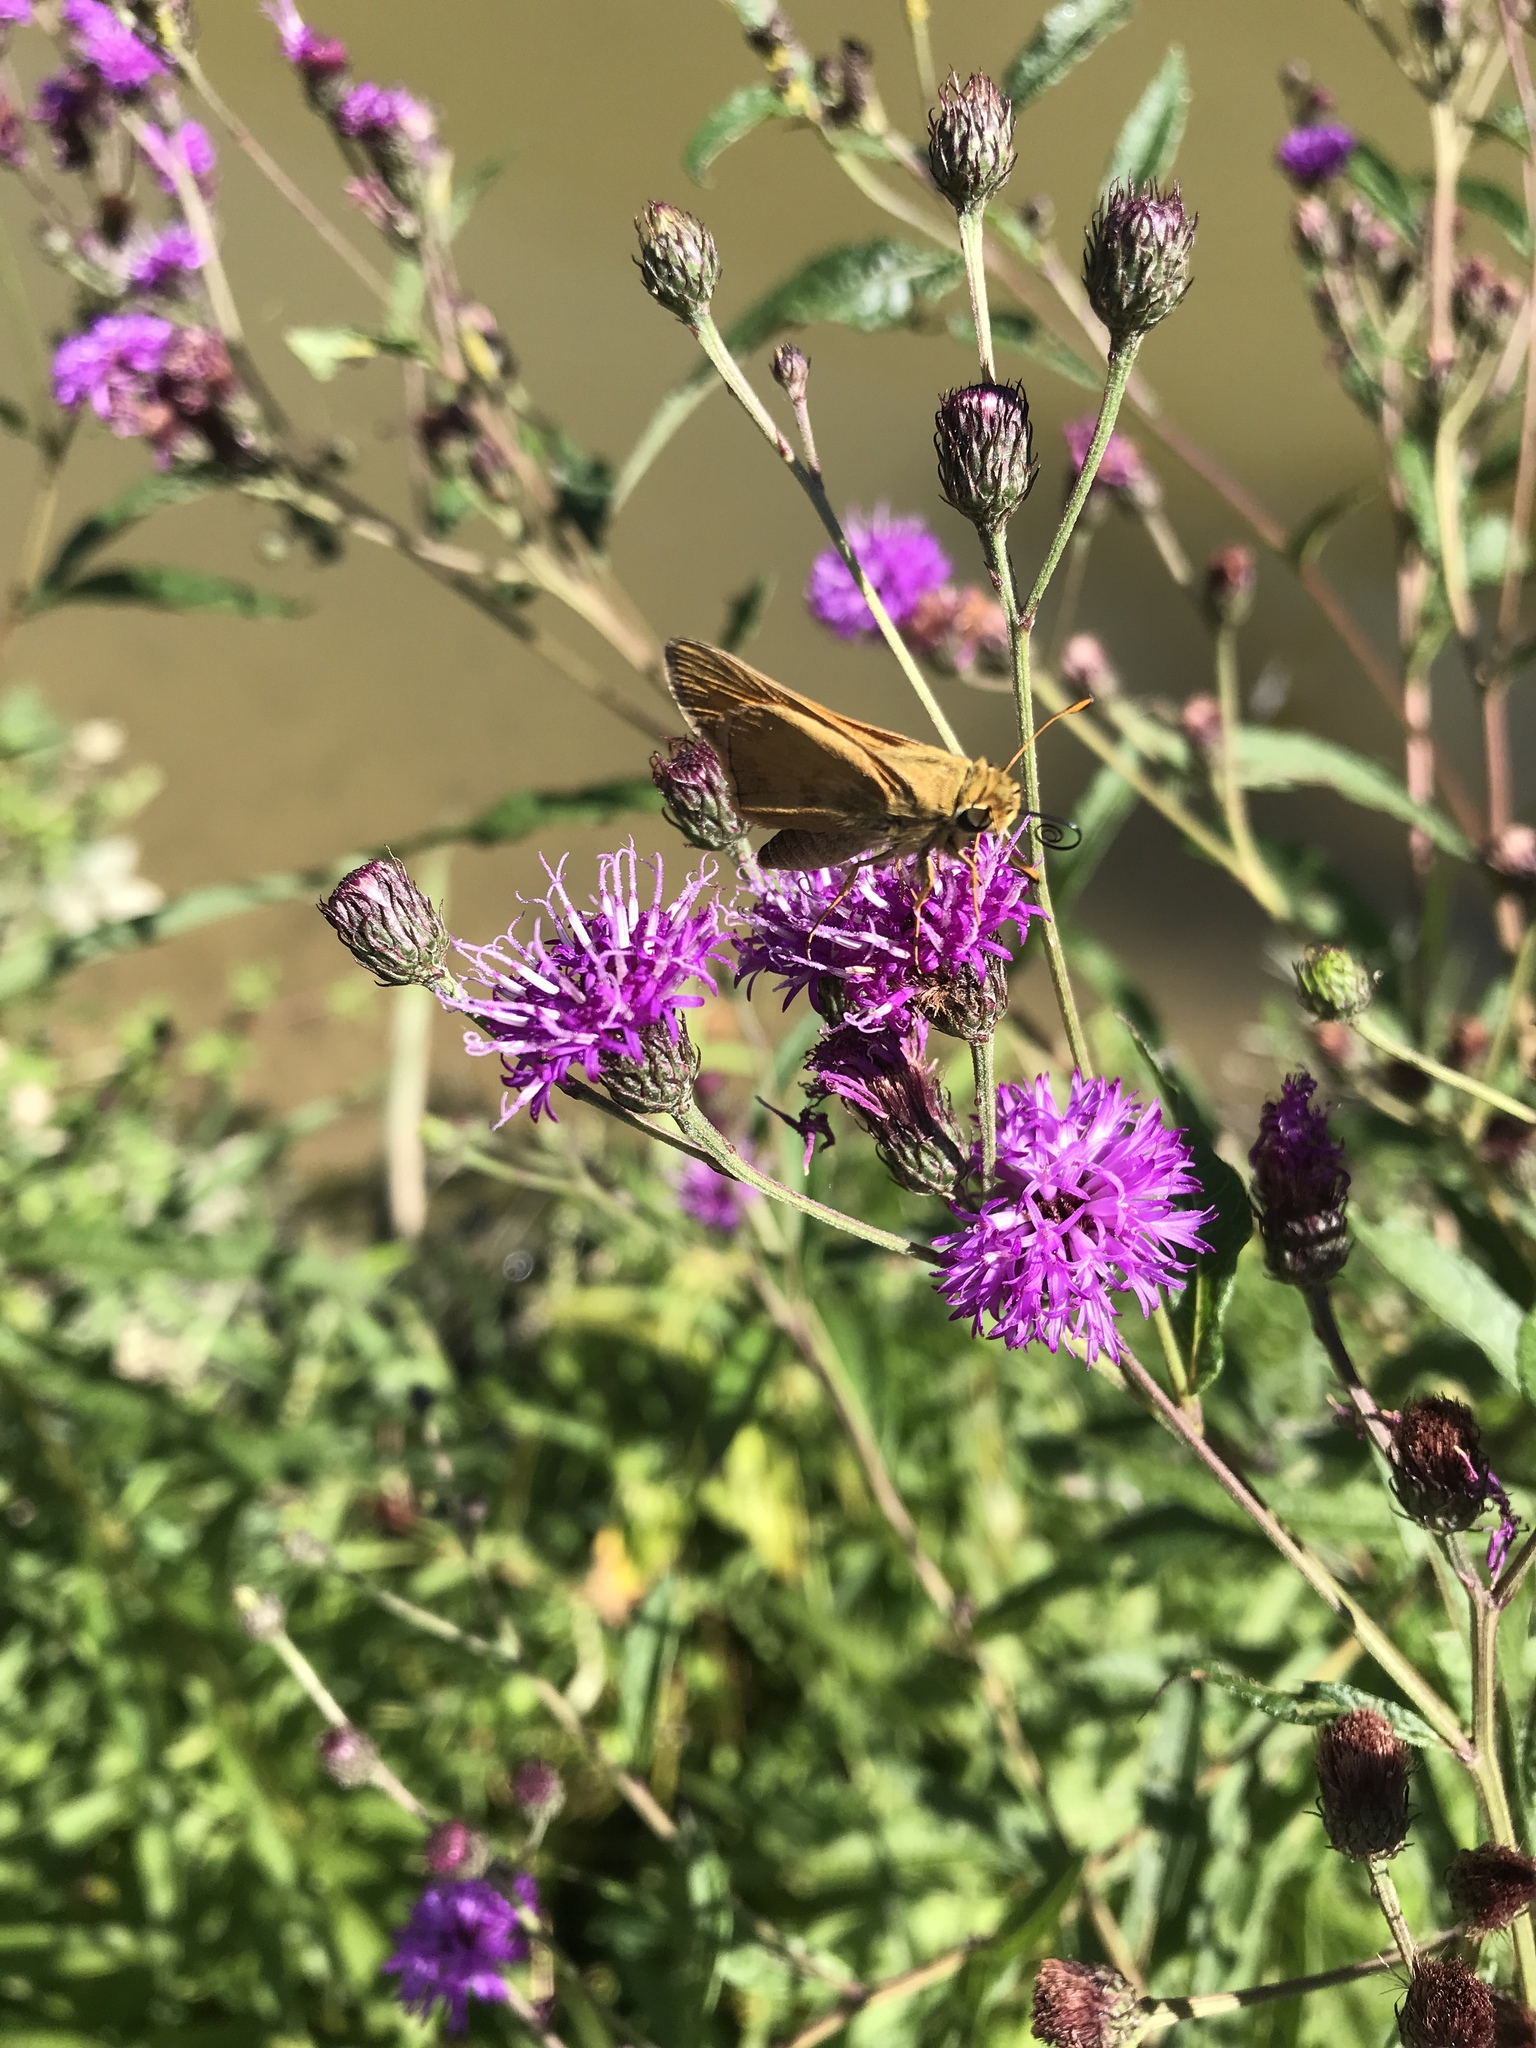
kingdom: Animalia
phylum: Arthropoda
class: Insecta
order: Lepidoptera
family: Hesperiidae
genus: Atalopedes
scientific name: Atalopedes
